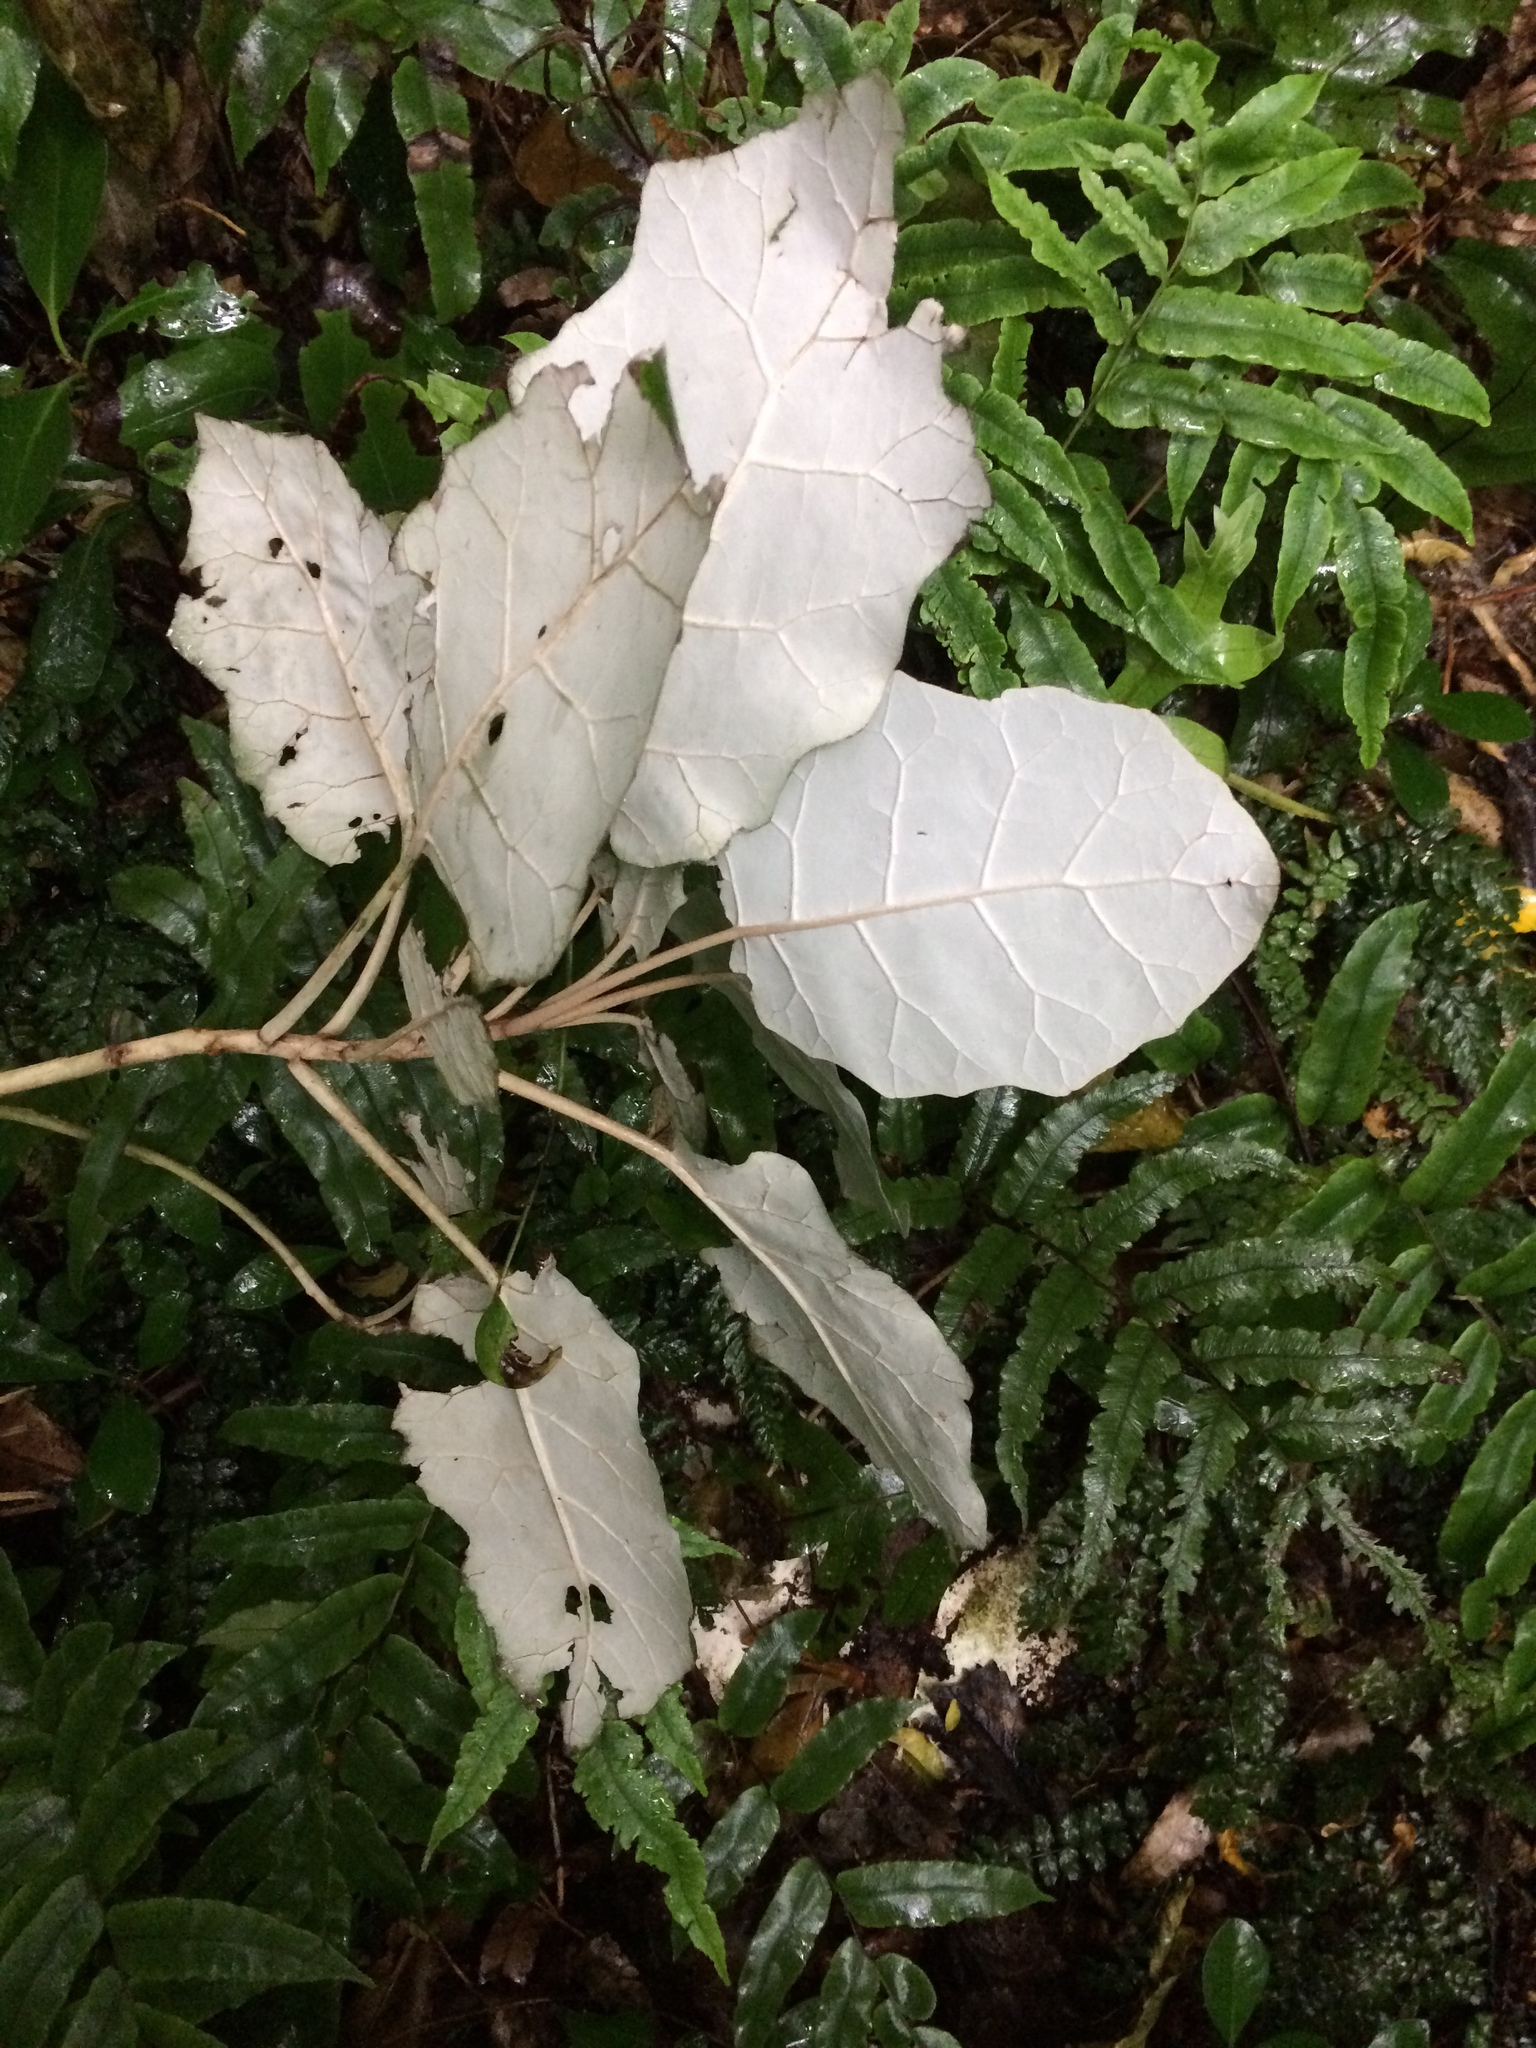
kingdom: Plantae
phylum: Tracheophyta
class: Magnoliopsida
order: Asterales
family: Asteraceae
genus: Brachyglottis
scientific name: Brachyglottis repanda
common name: Hedge ragwort
